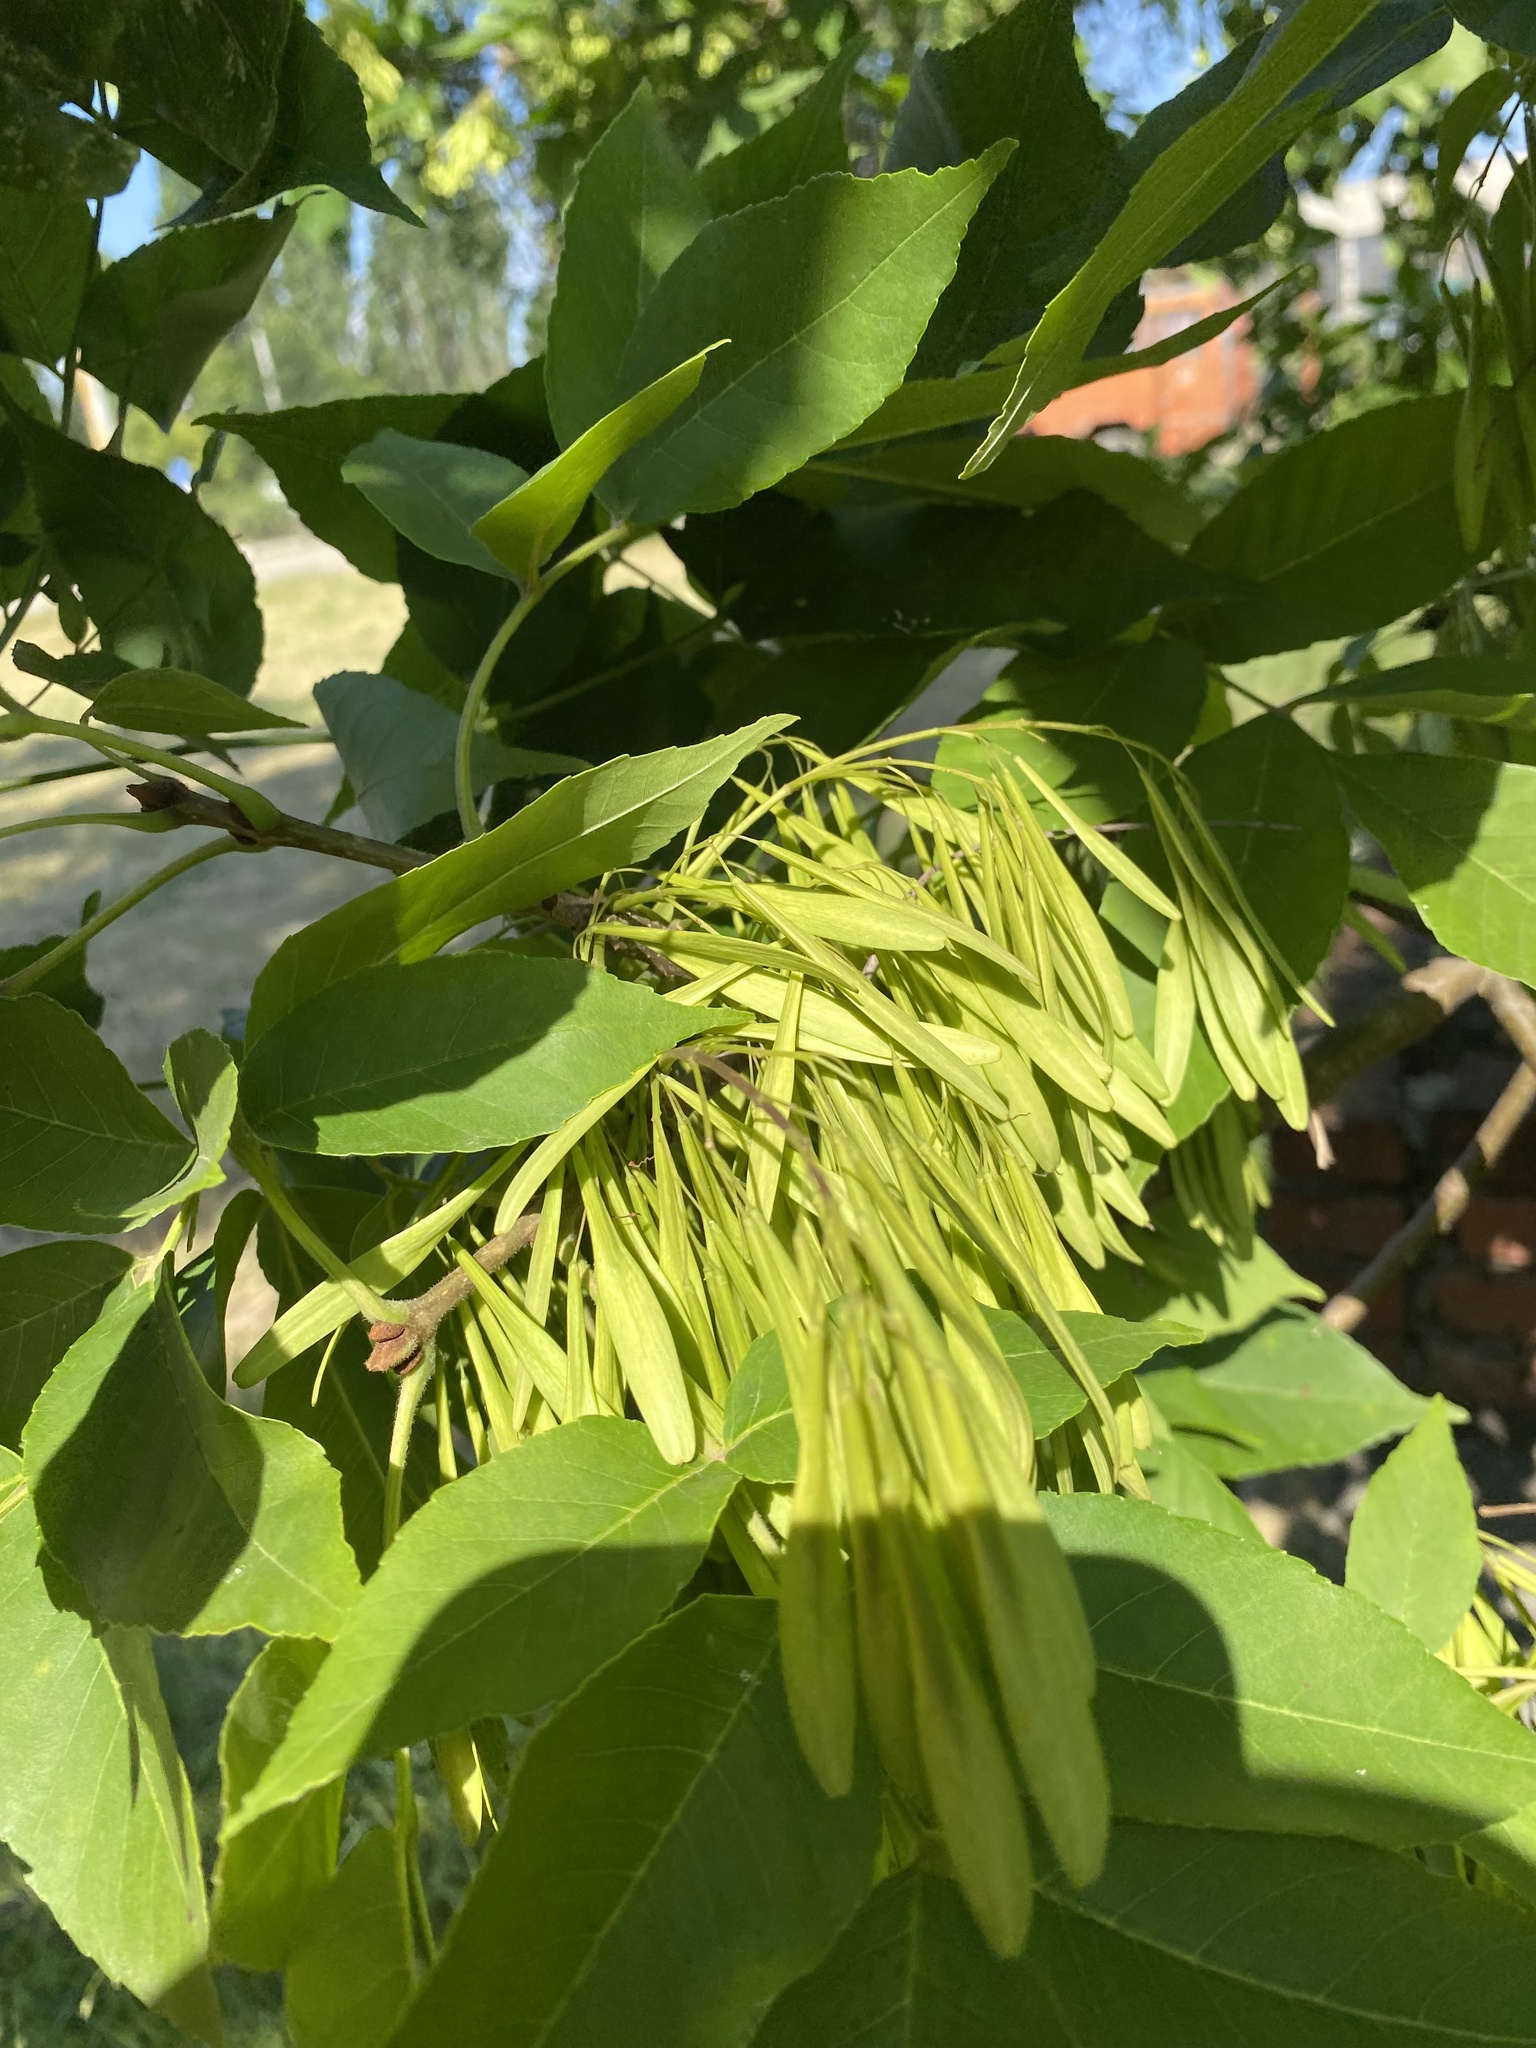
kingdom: Plantae
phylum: Tracheophyta
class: Magnoliopsida
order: Lamiales
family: Oleaceae
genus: Fraxinus
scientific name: Fraxinus pennsylvanica
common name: Green ash
